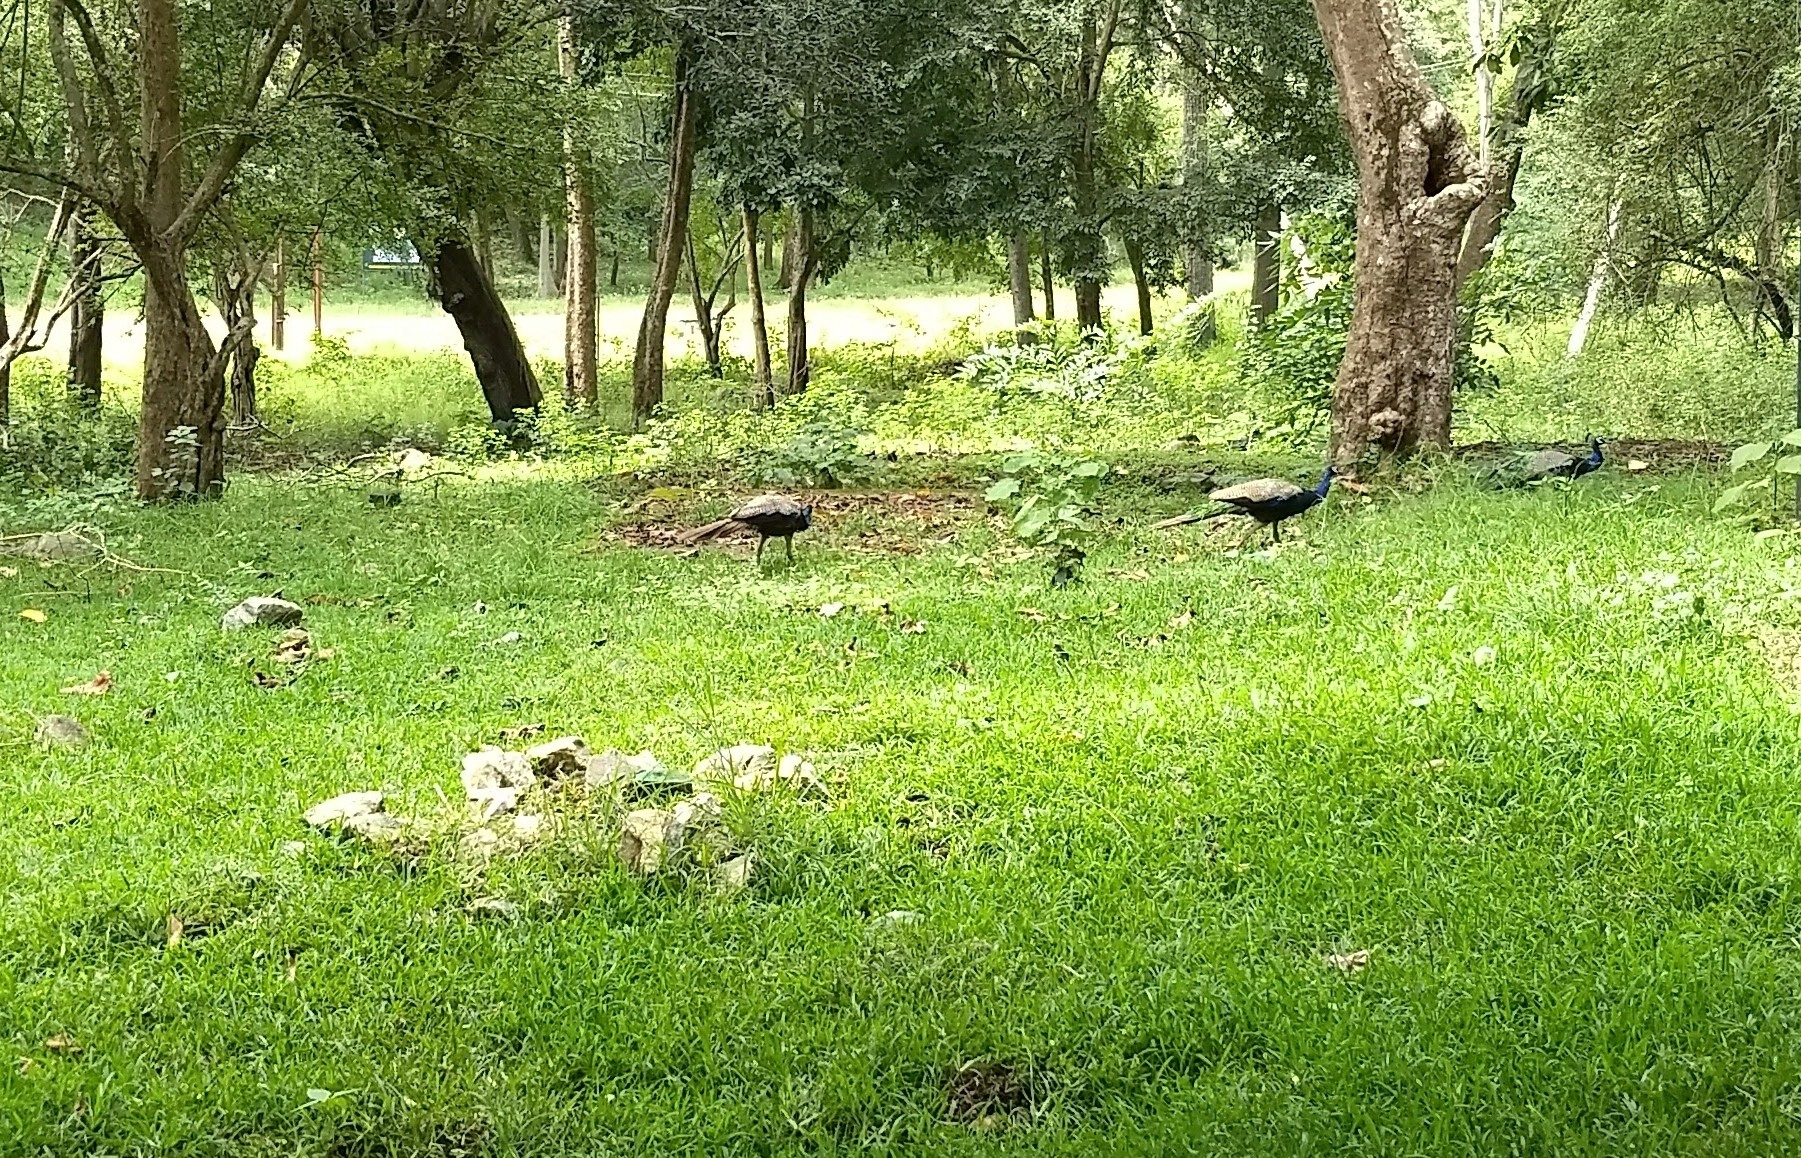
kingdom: Animalia
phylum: Chordata
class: Aves
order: Galliformes
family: Phasianidae
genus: Pavo
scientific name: Pavo cristatus
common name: Indian peafowl
